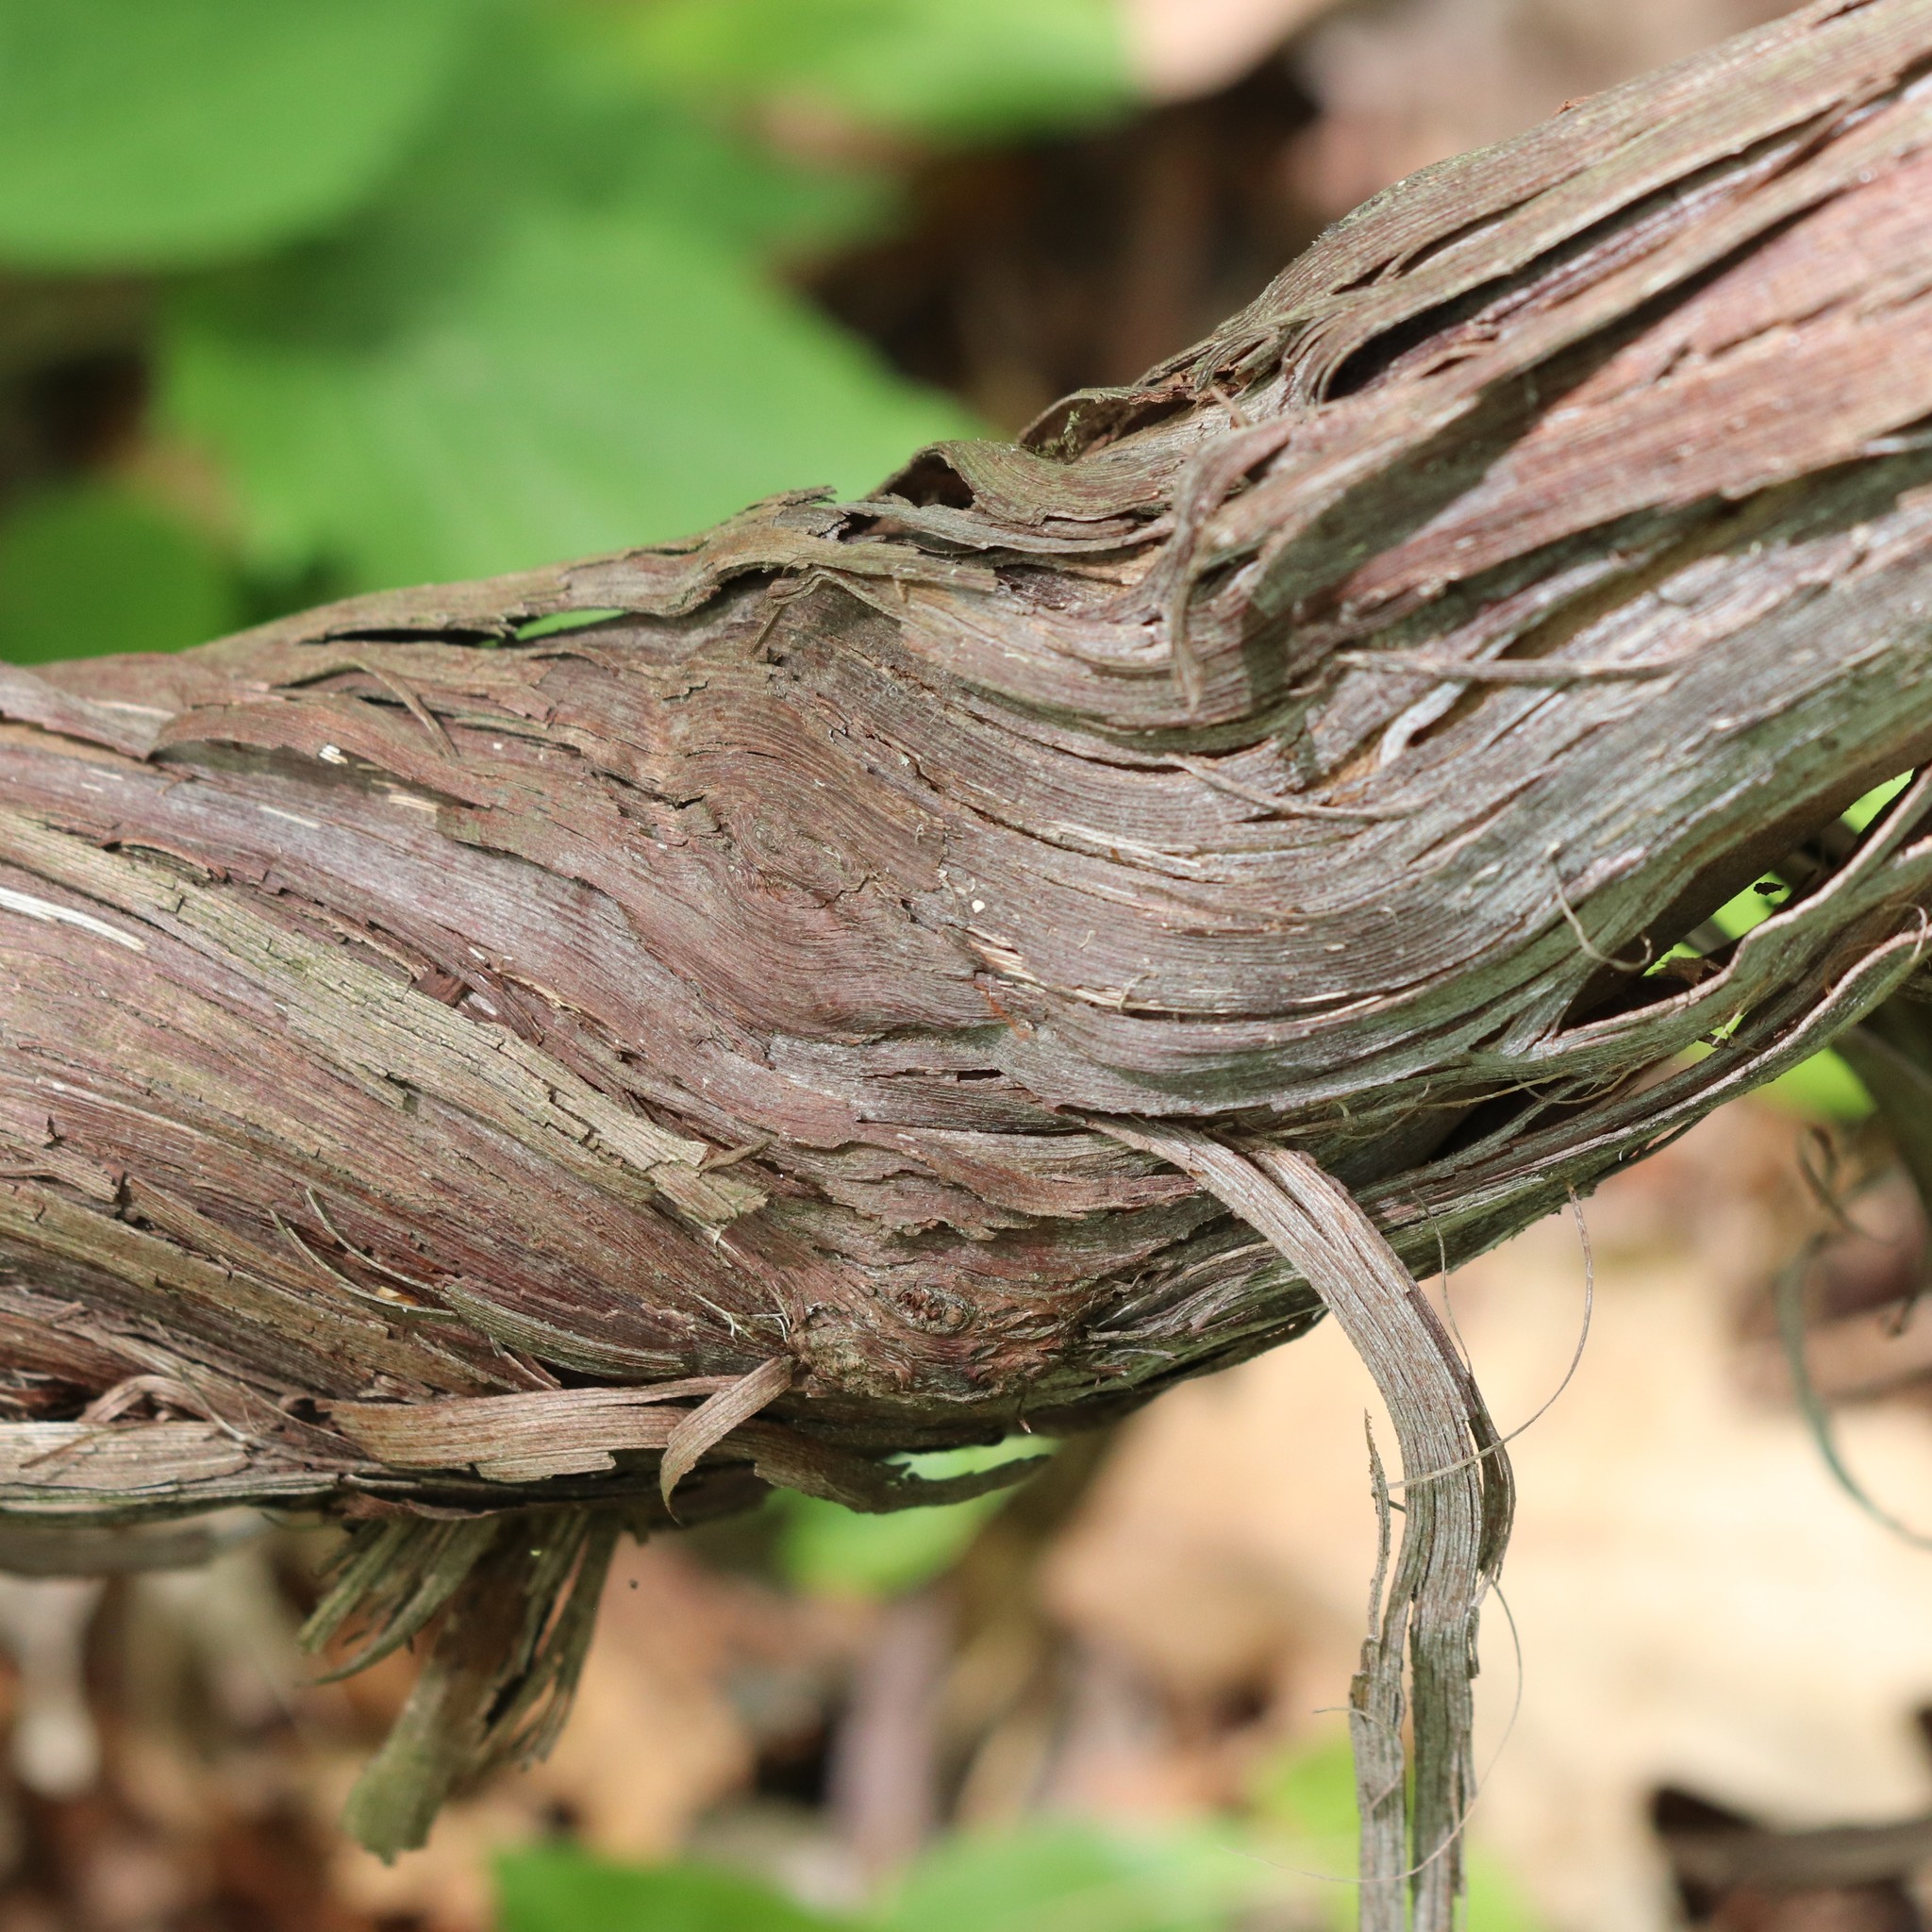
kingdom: Plantae
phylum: Tracheophyta
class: Magnoliopsida
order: Vitales
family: Vitaceae
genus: Vitis
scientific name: Vitis
